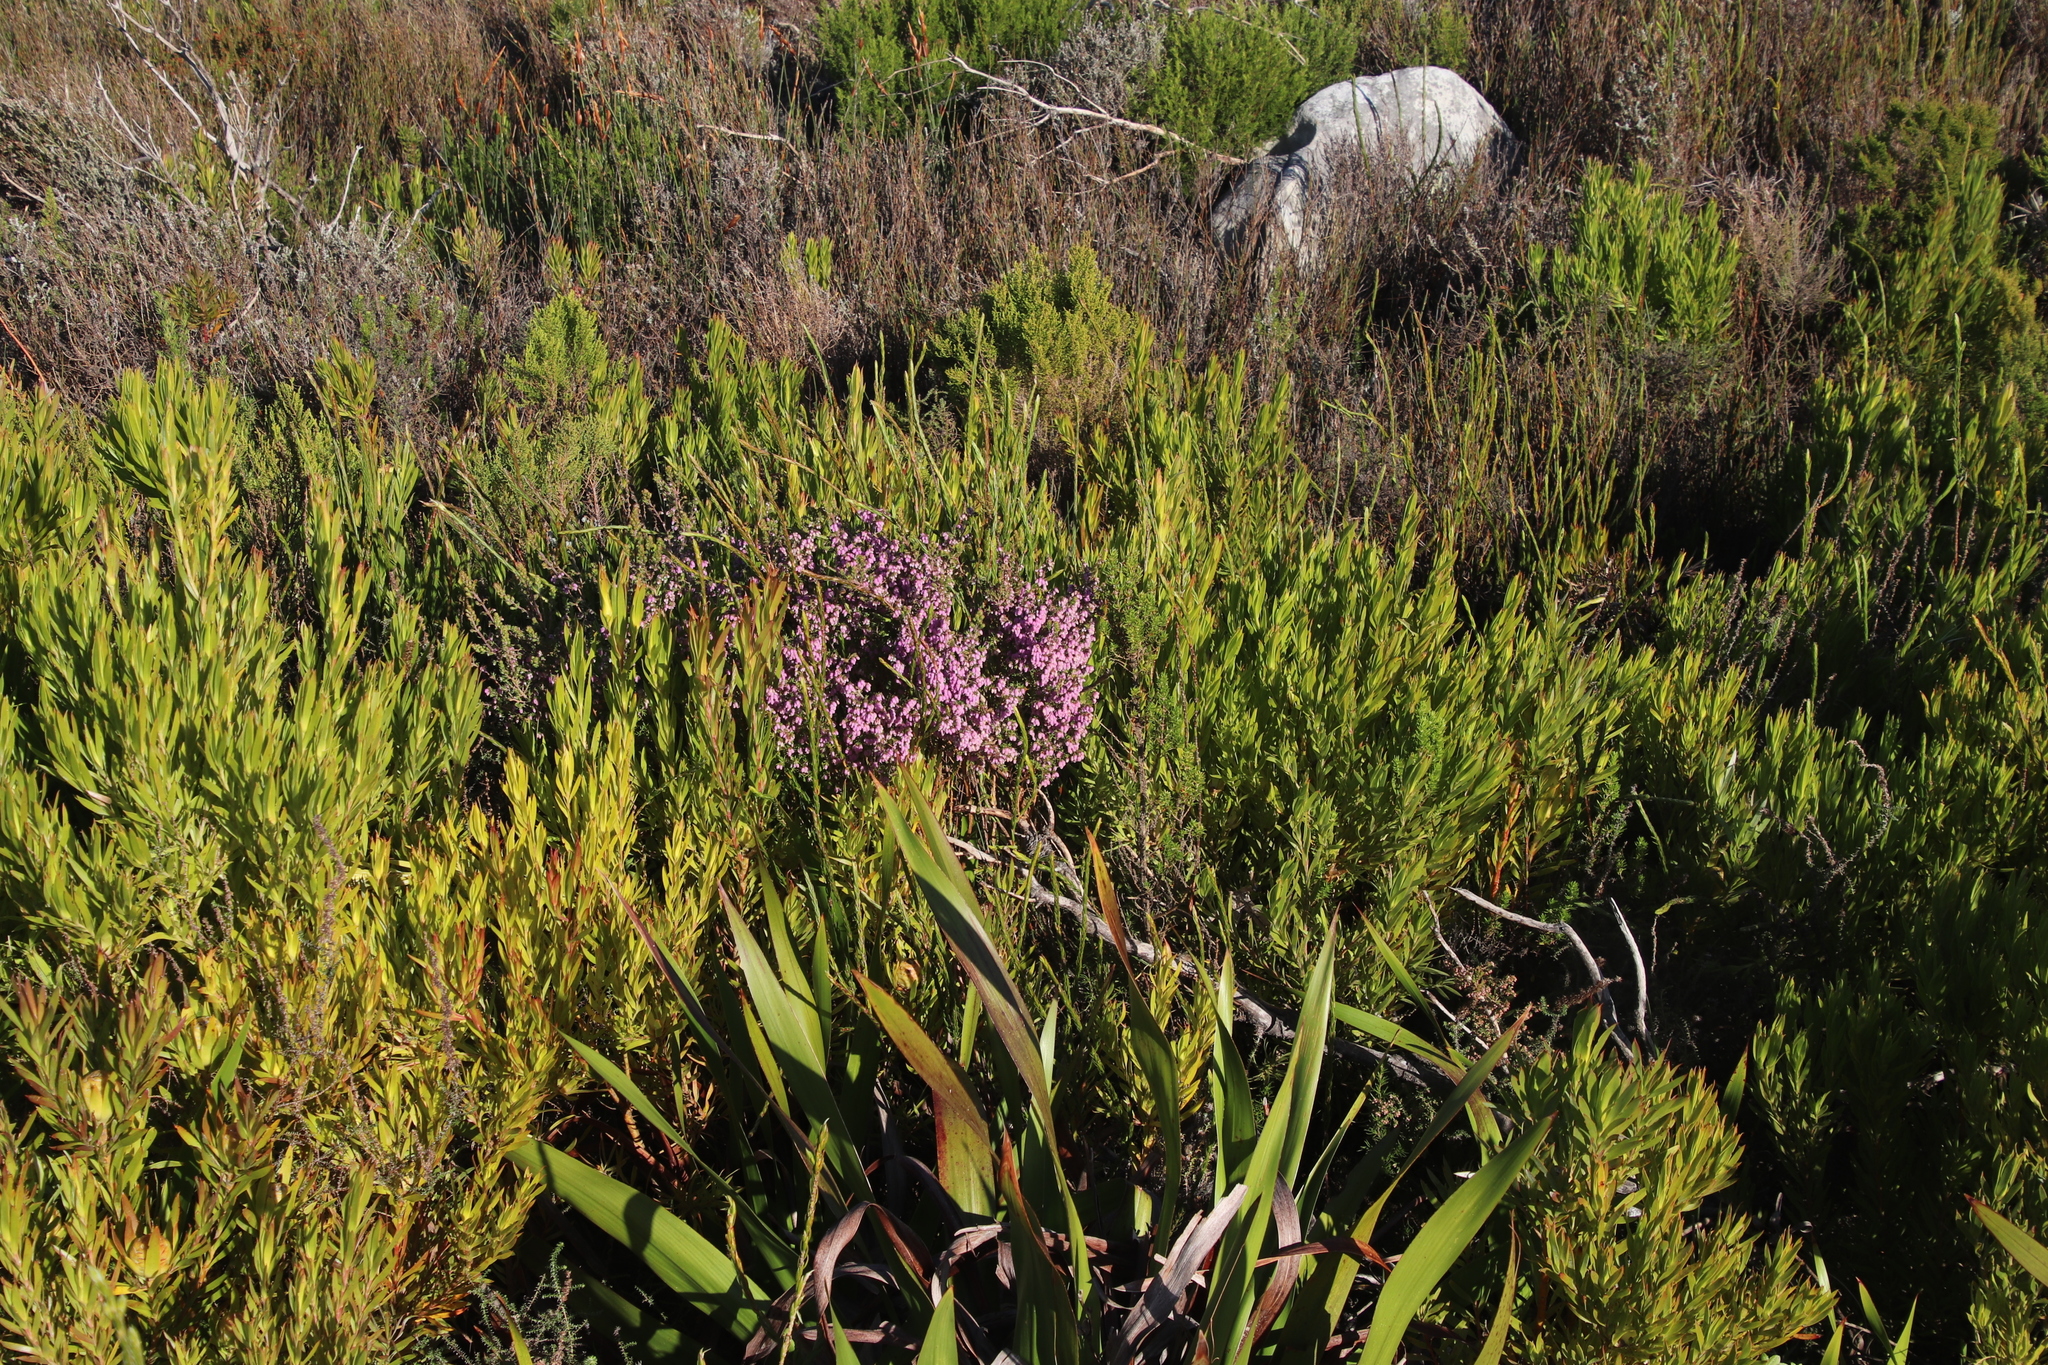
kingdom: Plantae
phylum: Tracheophyta
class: Magnoliopsida
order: Ericales
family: Ericaceae
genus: Erica
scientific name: Erica hirtiflora
